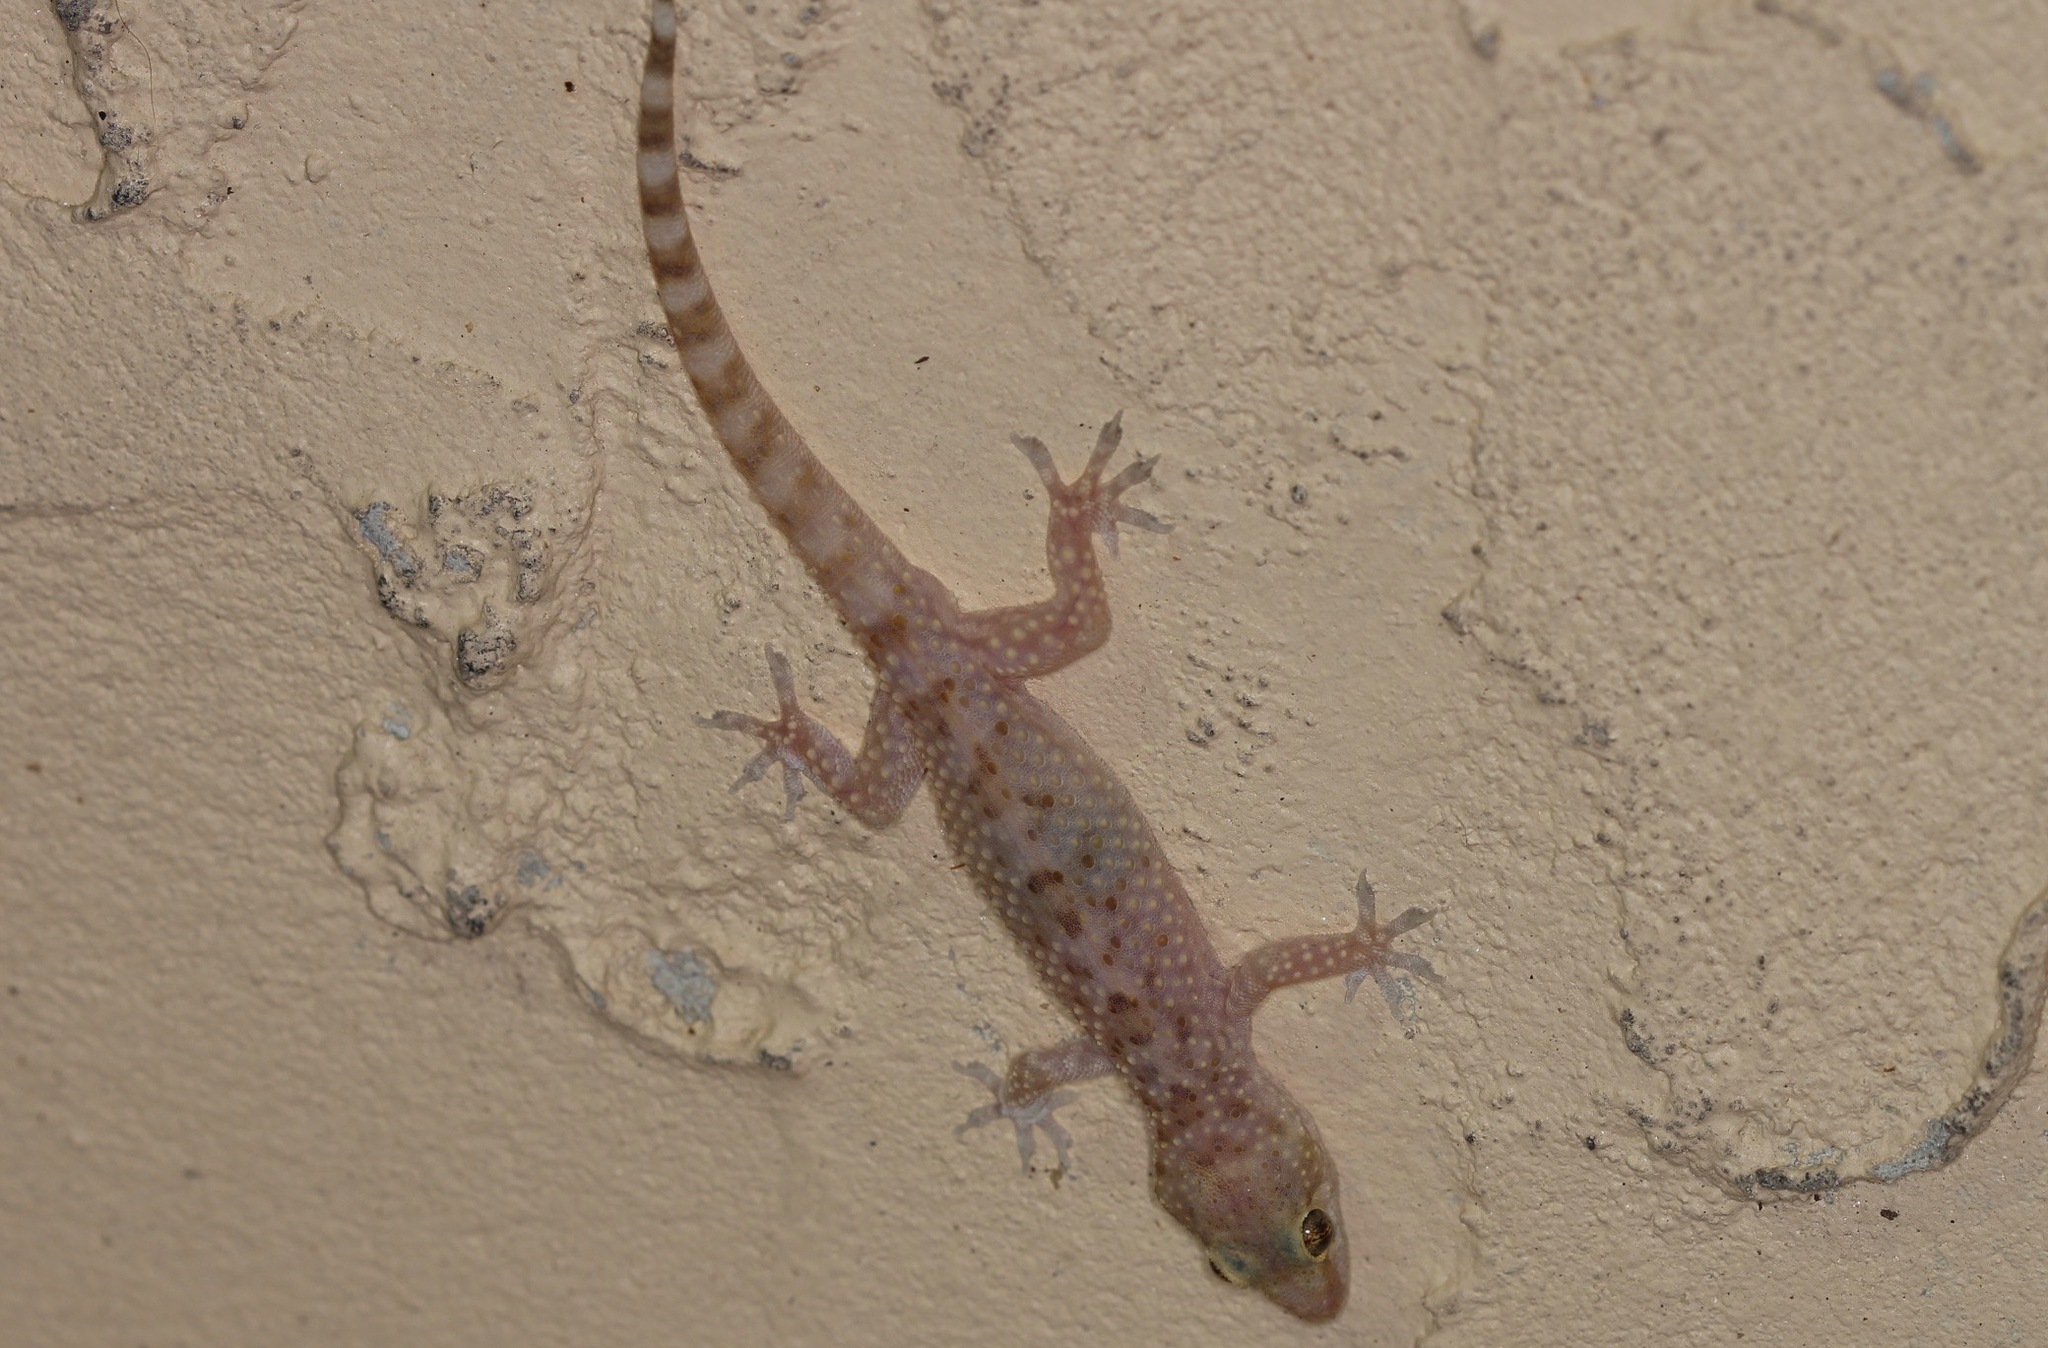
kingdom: Animalia
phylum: Chordata
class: Squamata
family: Gekkonidae
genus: Hemidactylus
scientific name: Hemidactylus turcicus
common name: Turkish gecko
